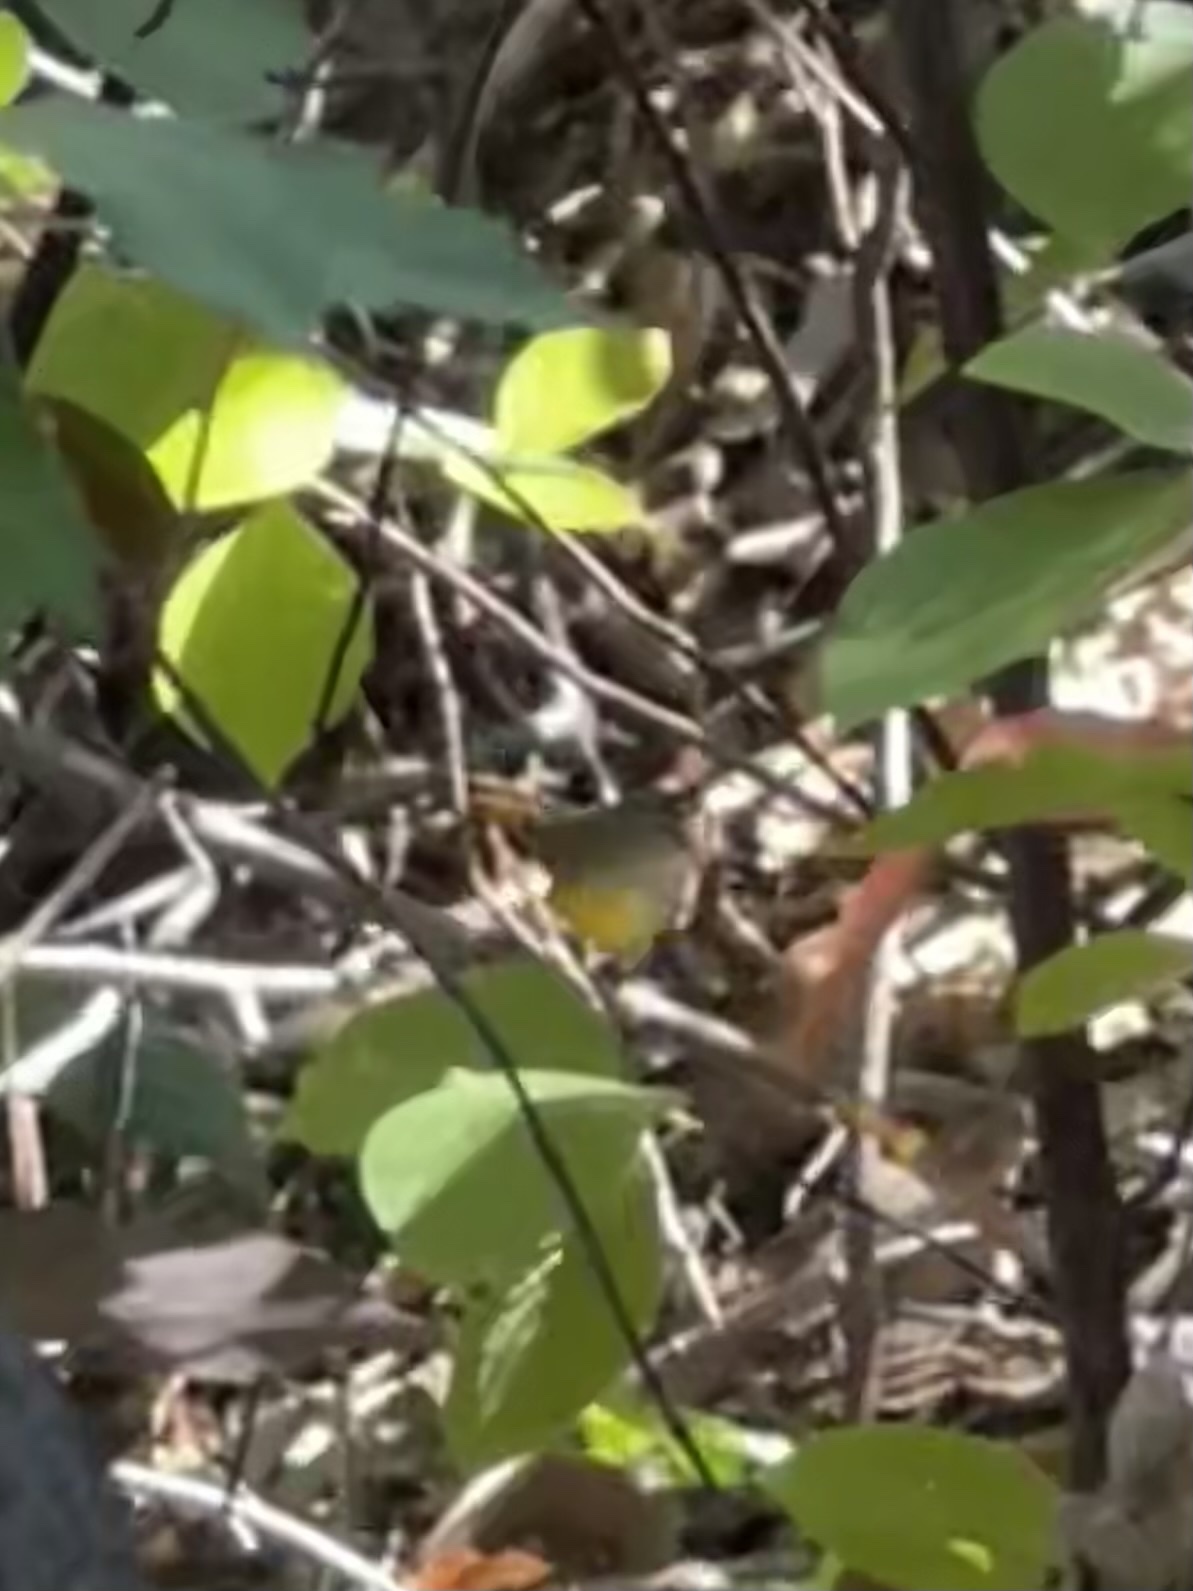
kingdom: Animalia
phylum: Chordata
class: Aves
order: Passeriformes
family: Parulidae
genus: Leiothlypis
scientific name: Leiothlypis ruficapilla
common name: Nashville warbler
